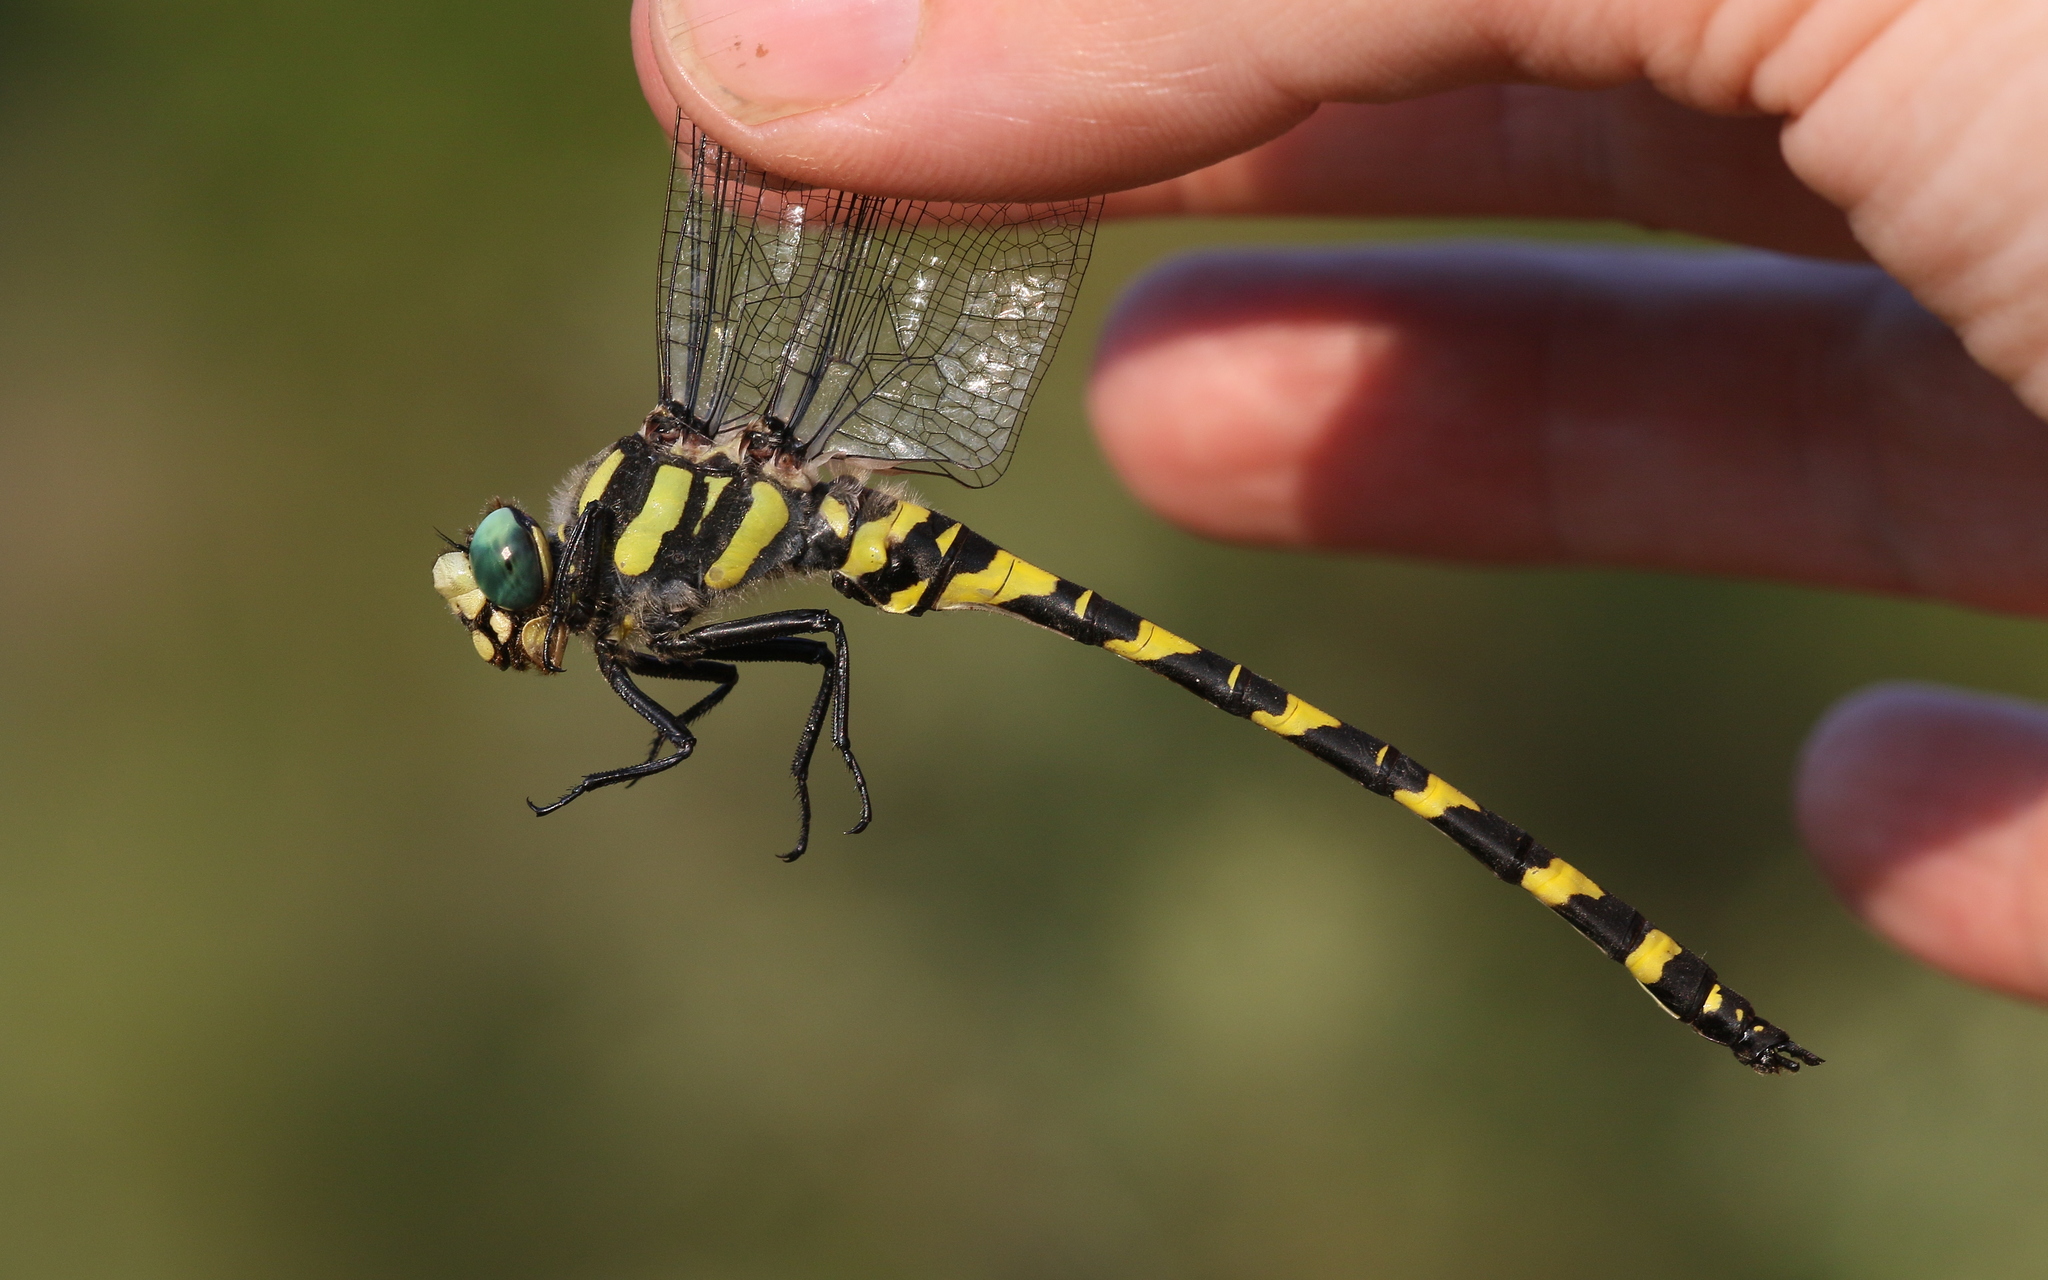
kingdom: Animalia
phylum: Arthropoda
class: Insecta
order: Odonata
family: Cordulegastridae
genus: Cordulegaster
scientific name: Cordulegaster helladica
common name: Greek goldenring
